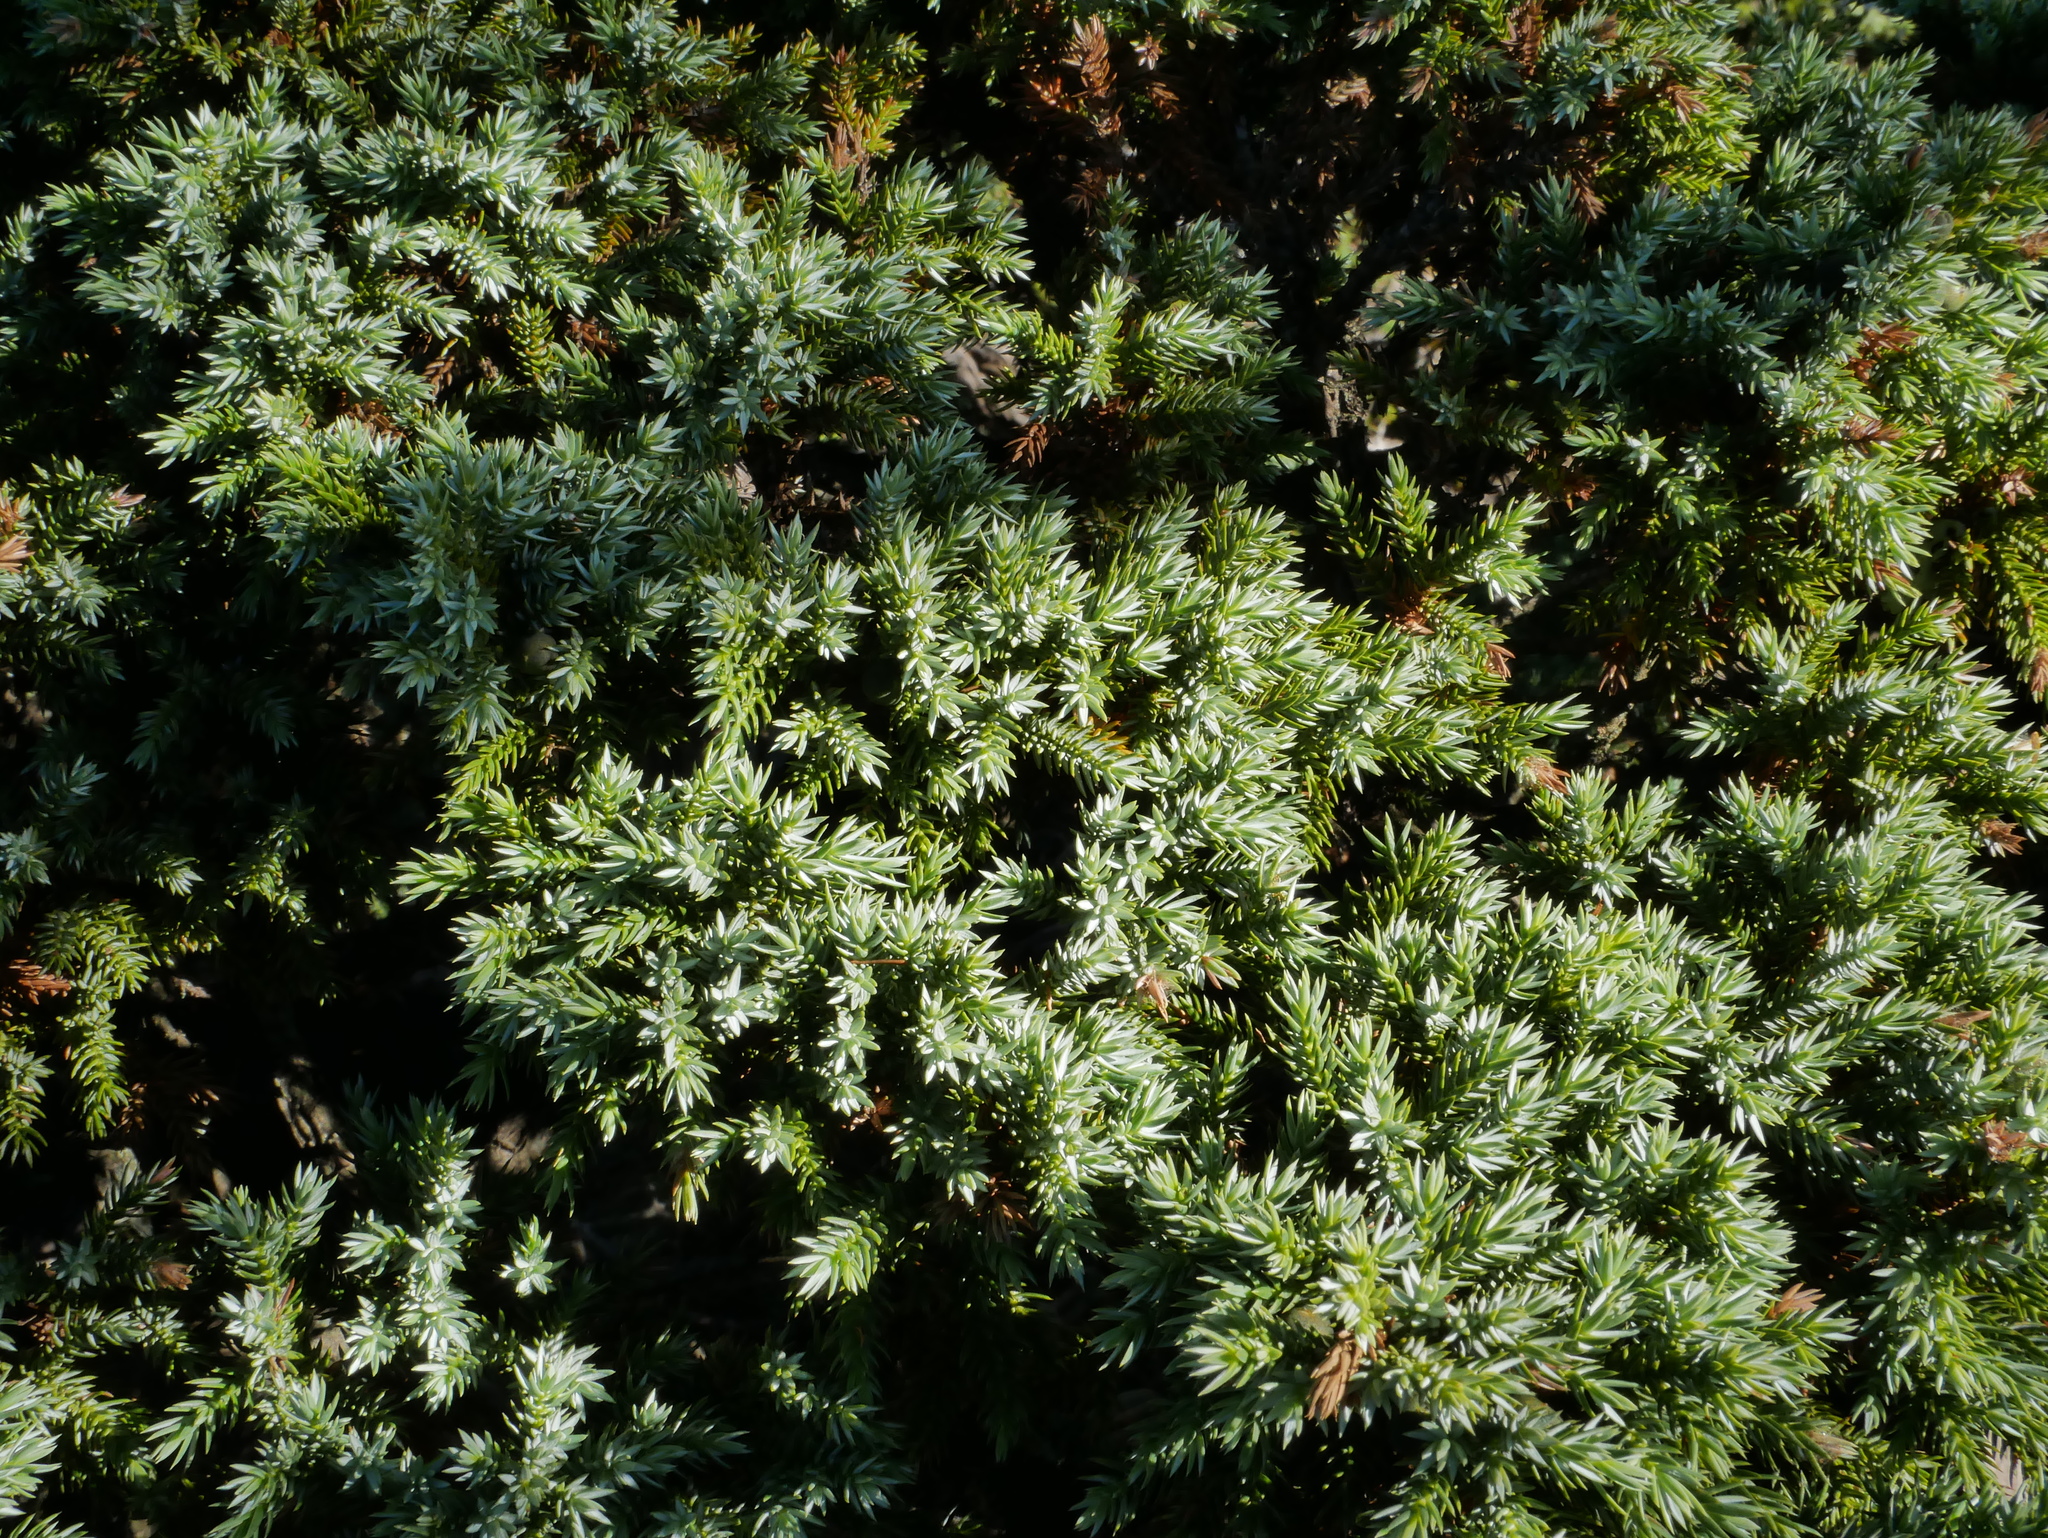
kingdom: Plantae
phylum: Tracheophyta
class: Pinopsida
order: Pinales
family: Cupressaceae
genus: Juniperus
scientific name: Juniperus squamata
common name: Flaky juniper
